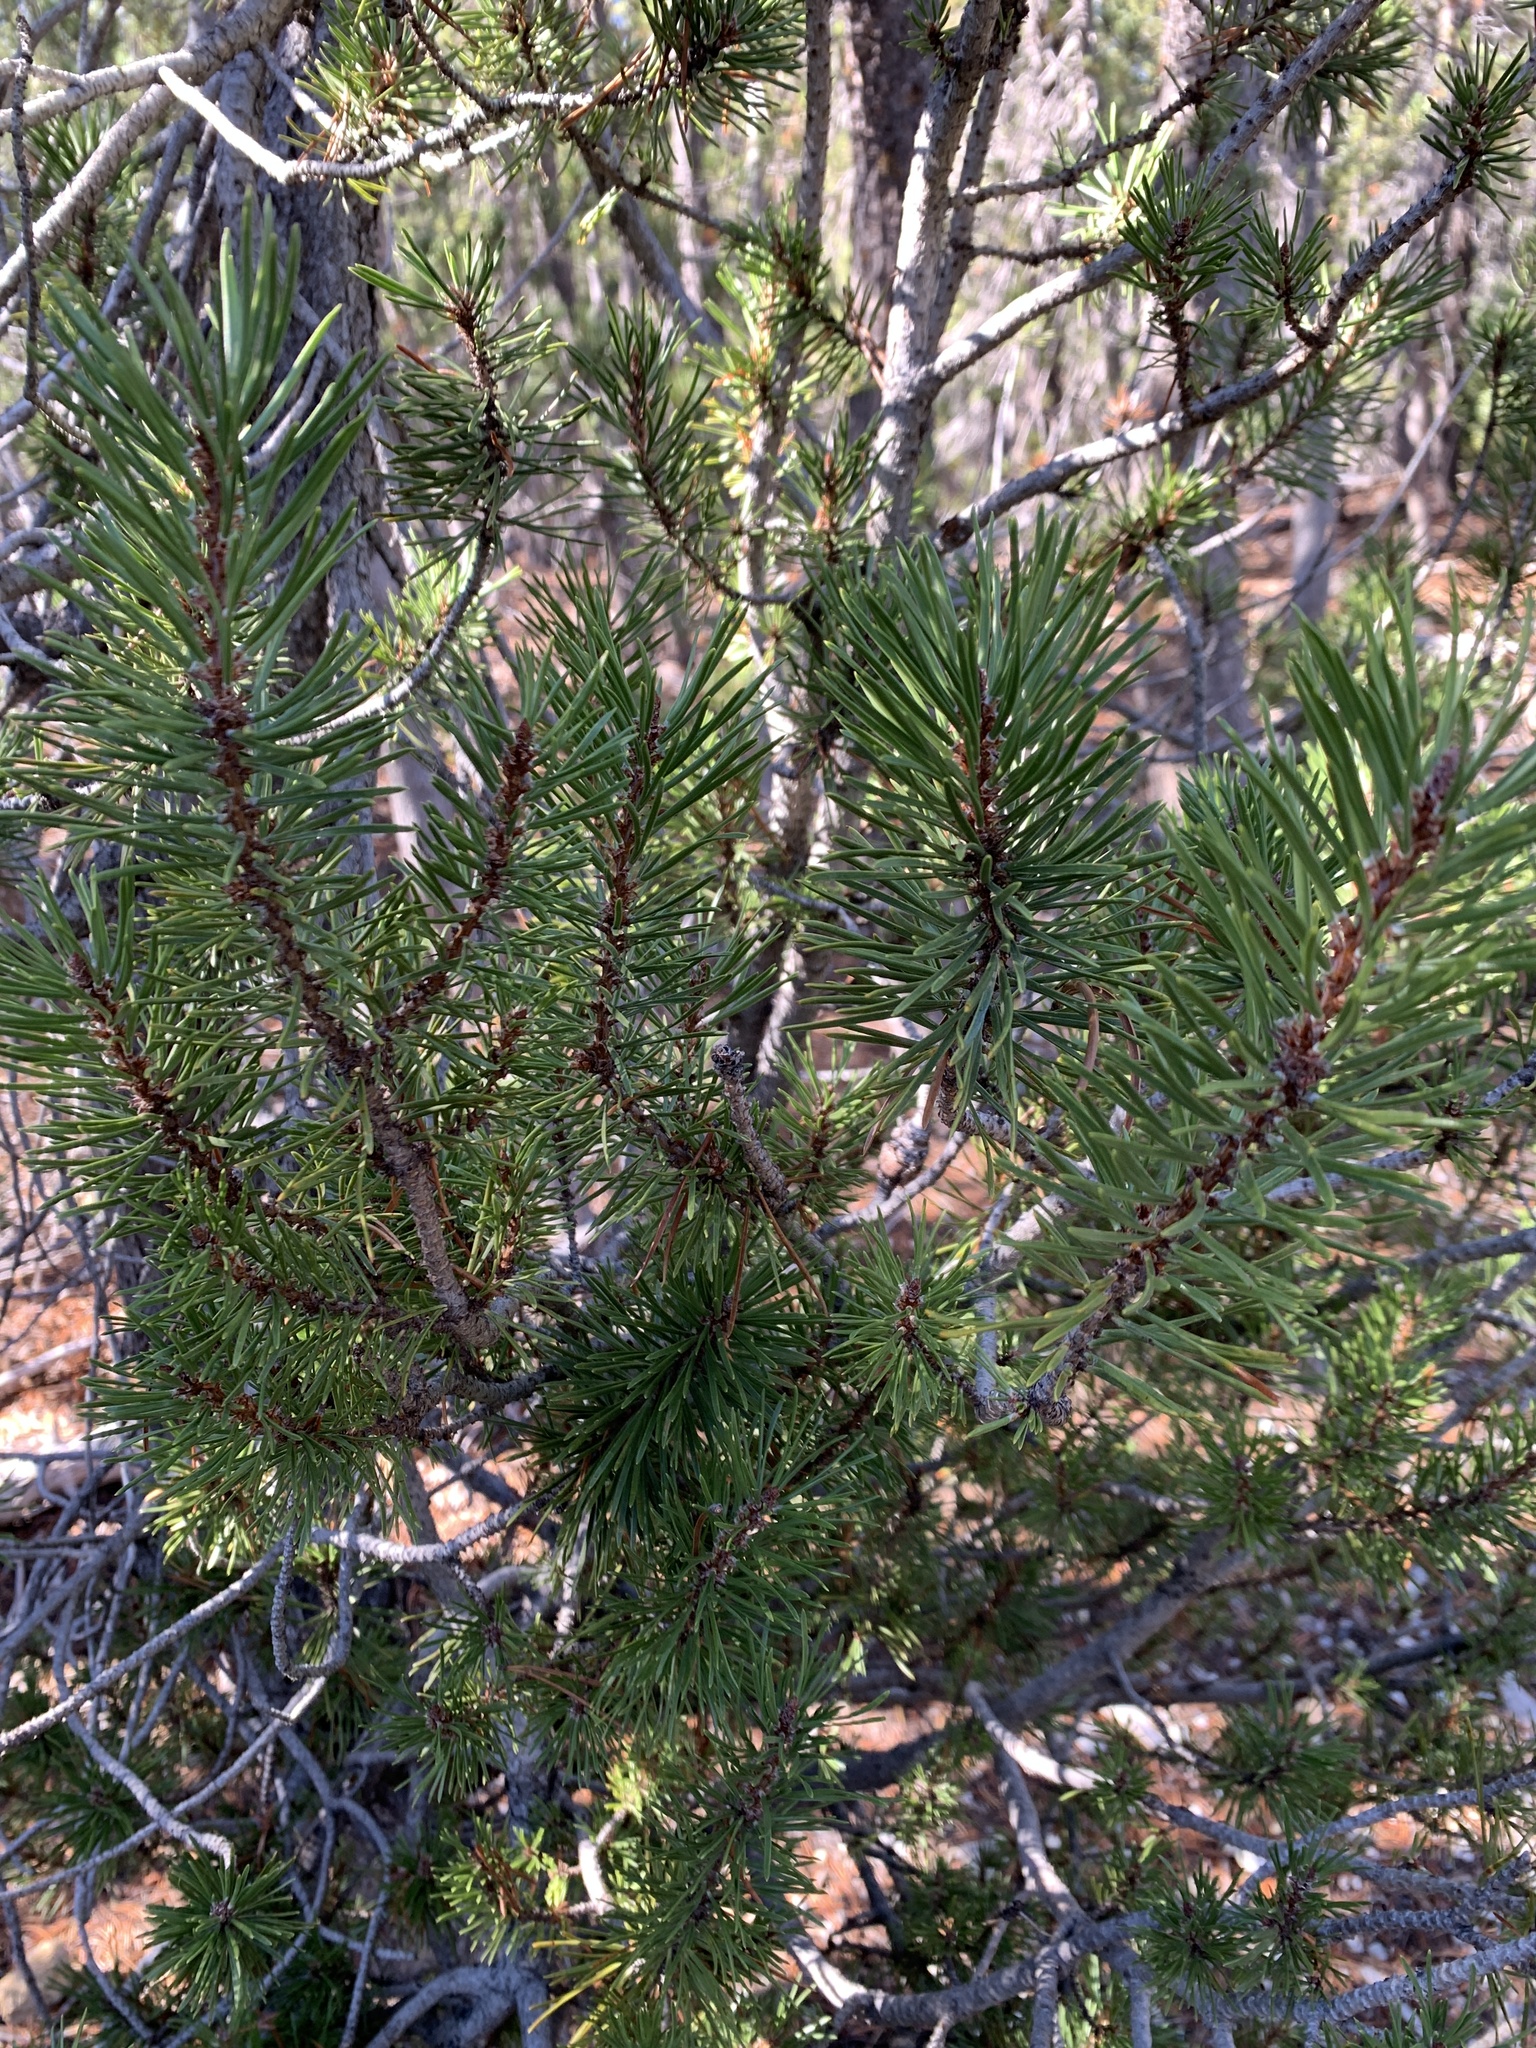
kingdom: Plantae
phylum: Tracheophyta
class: Pinopsida
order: Pinales
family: Pinaceae
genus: Pinus
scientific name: Pinus contorta
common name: Lodgepole pine
